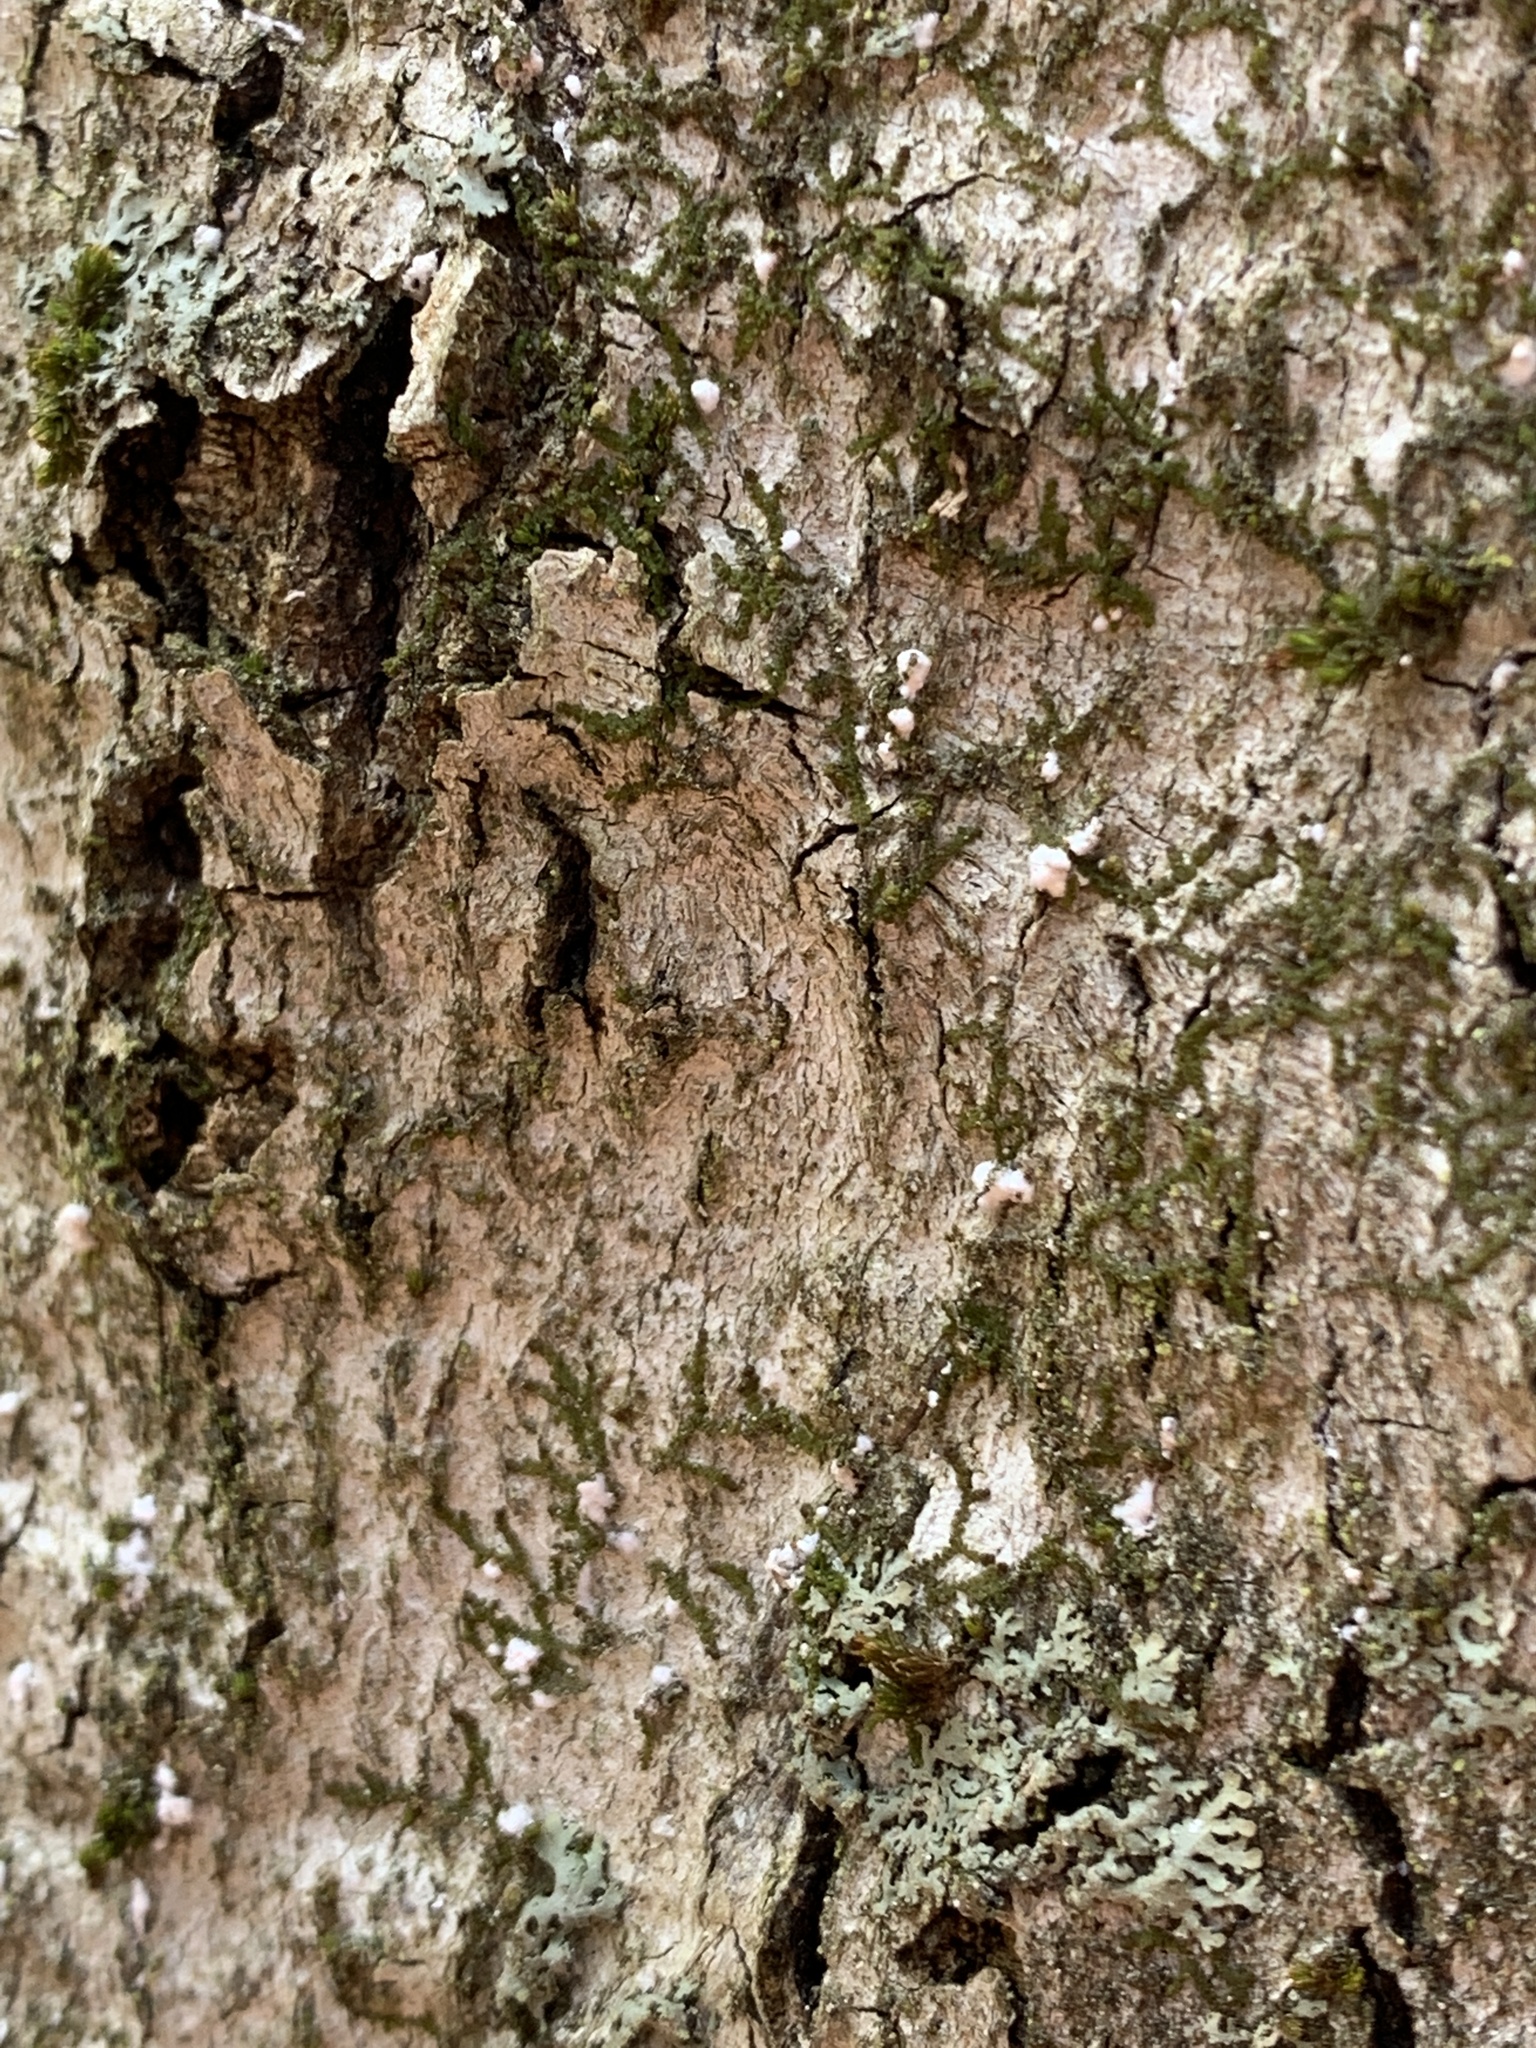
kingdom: Animalia
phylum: Arthropoda
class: Insecta
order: Hemiptera
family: Eriococcidae
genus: Cryptococcus
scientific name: Cryptococcus fagisuga
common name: Beech scale
